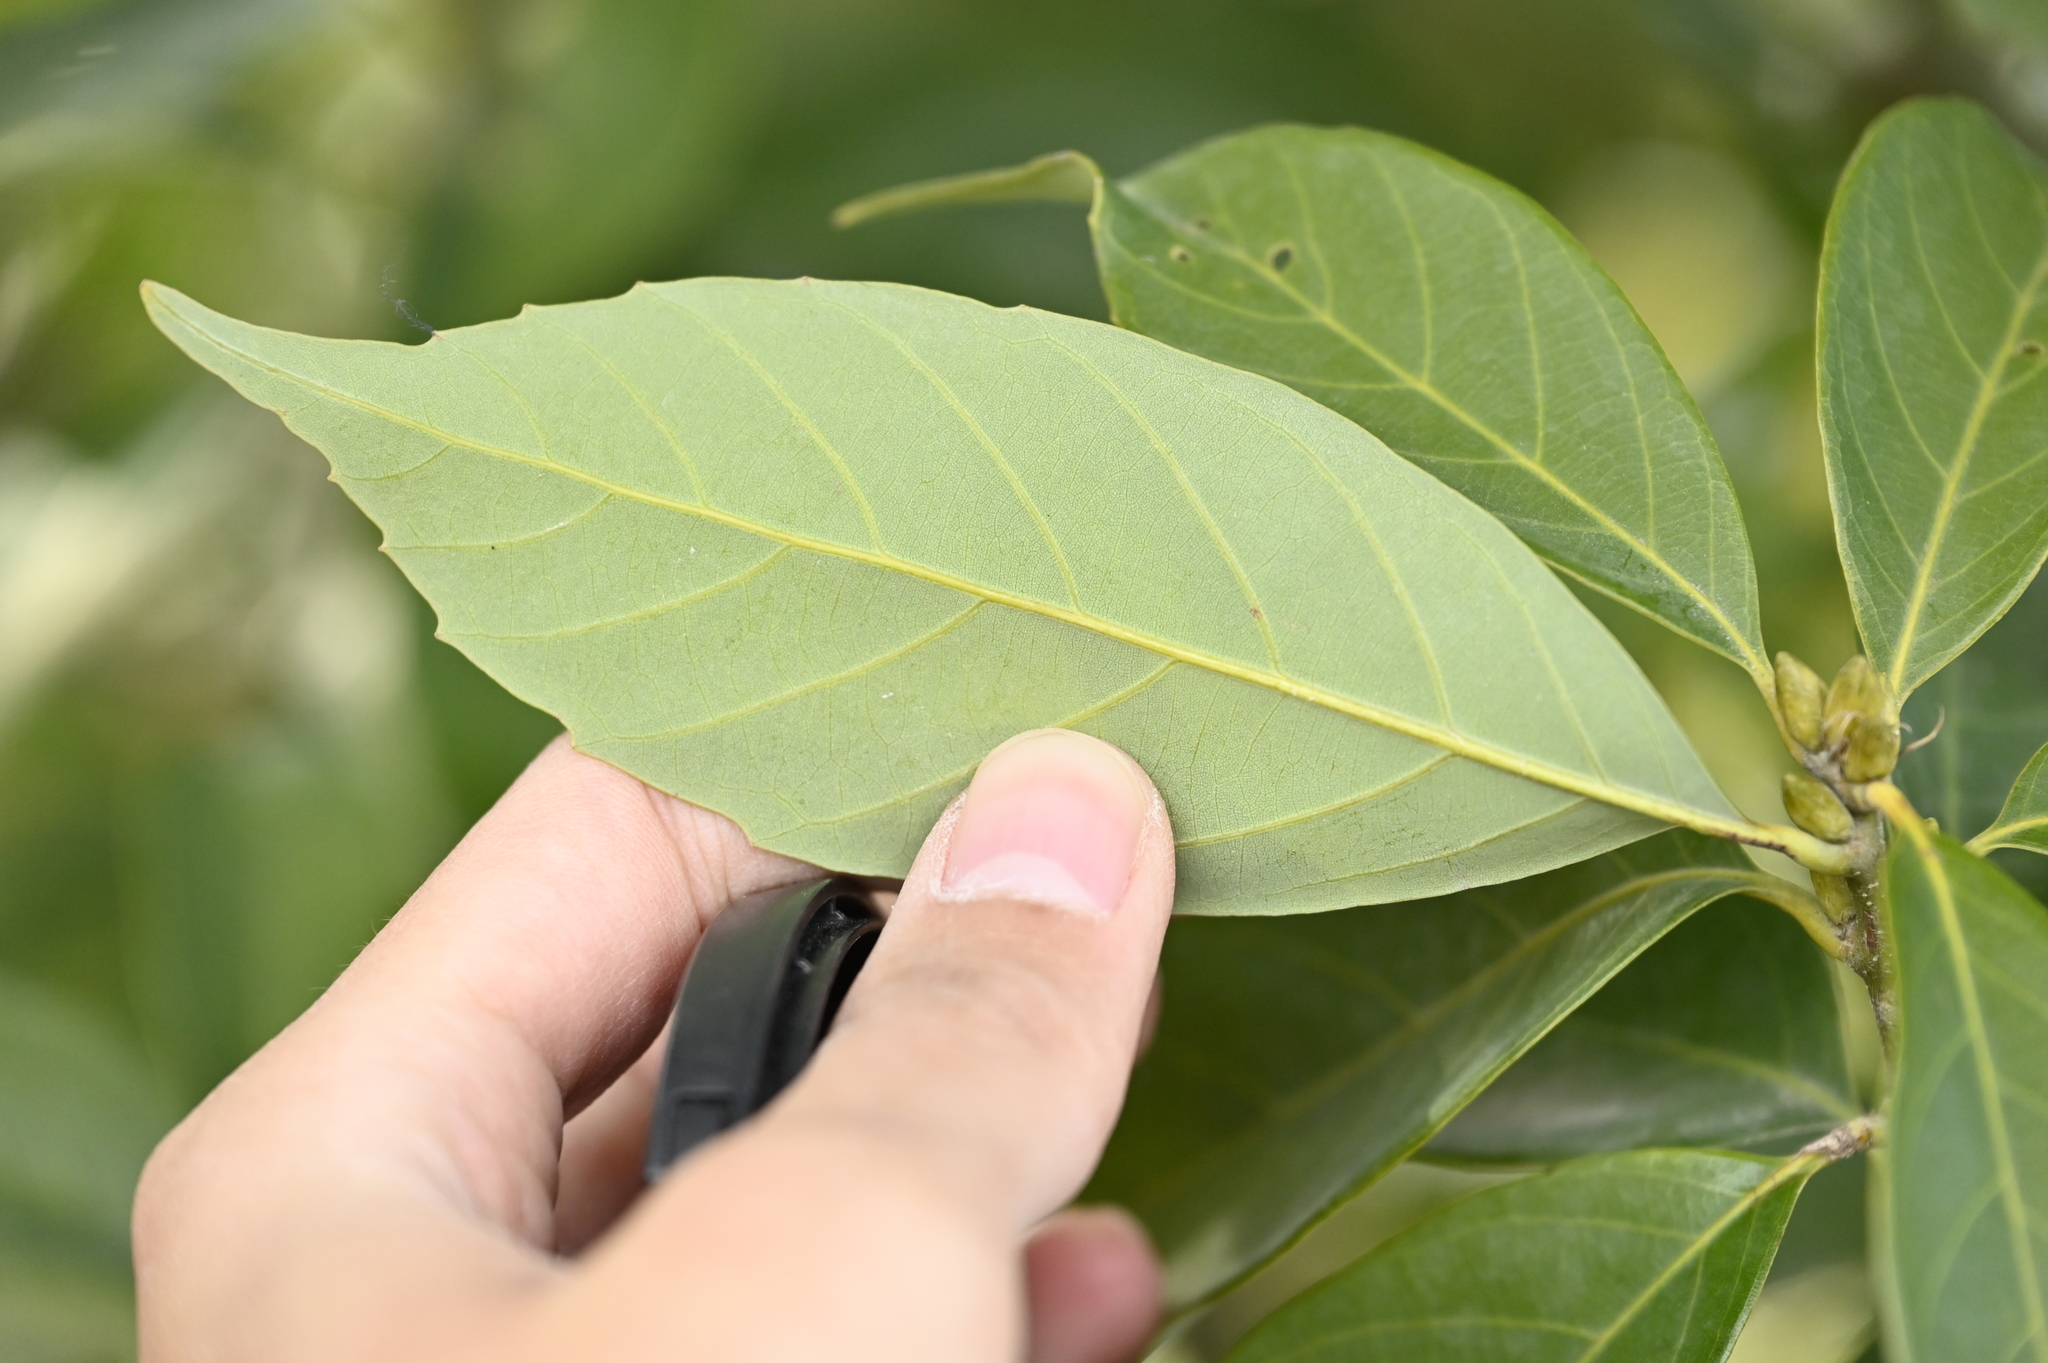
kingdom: Plantae
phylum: Tracheophyta
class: Magnoliopsida
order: Fagales
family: Fagaceae
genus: Quercus
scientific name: Quercus glauca
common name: Ring-cup oak
